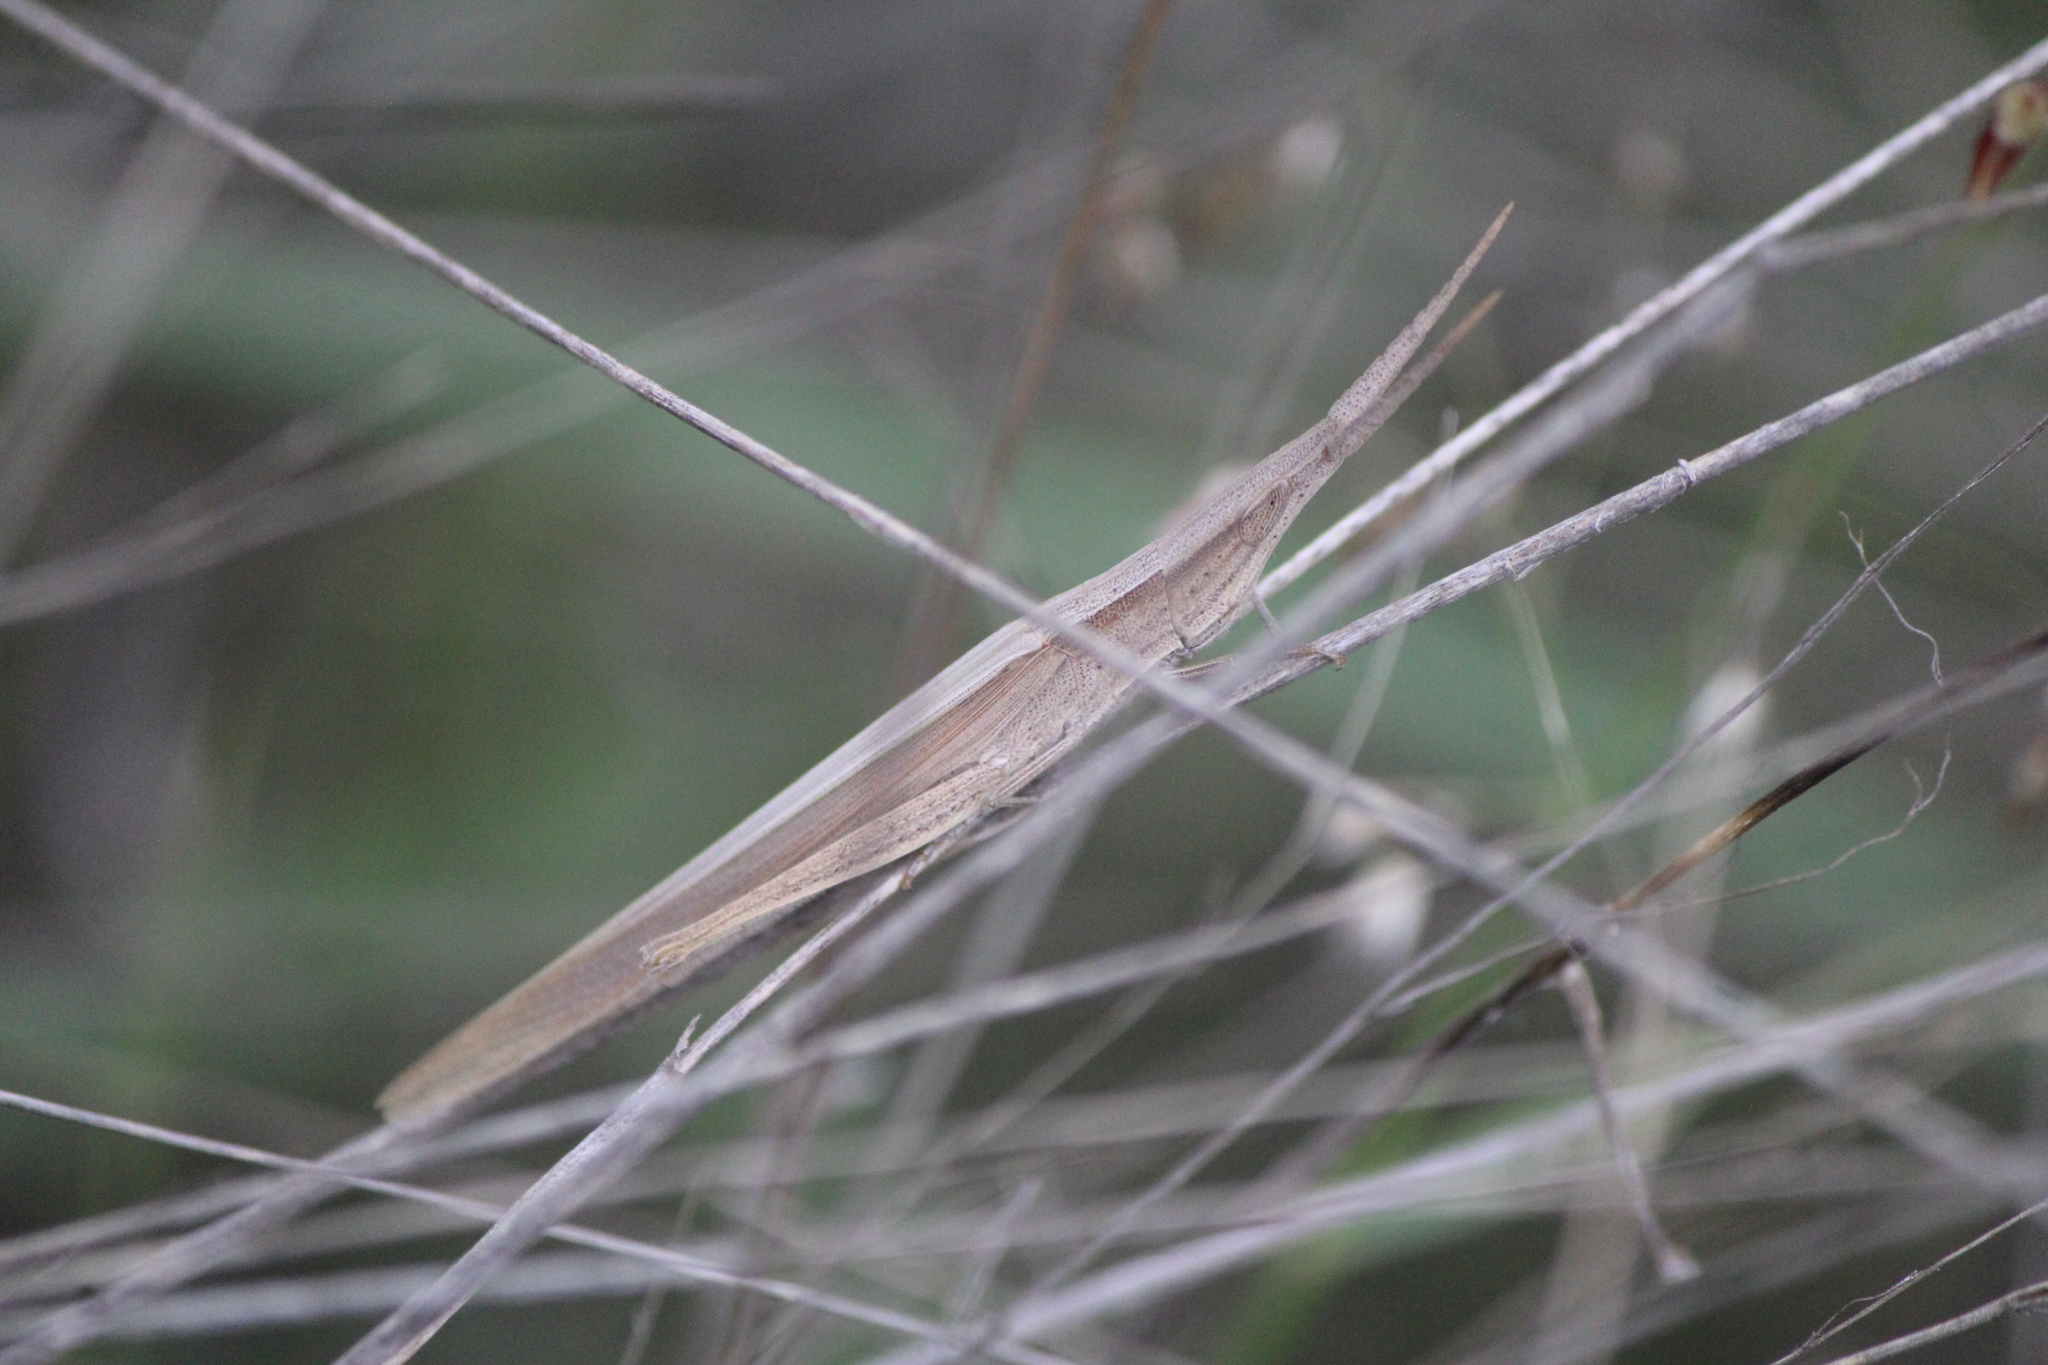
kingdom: Animalia
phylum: Arthropoda
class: Insecta
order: Orthoptera
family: Acrididae
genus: Achurum
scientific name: Achurum sumichrasti
